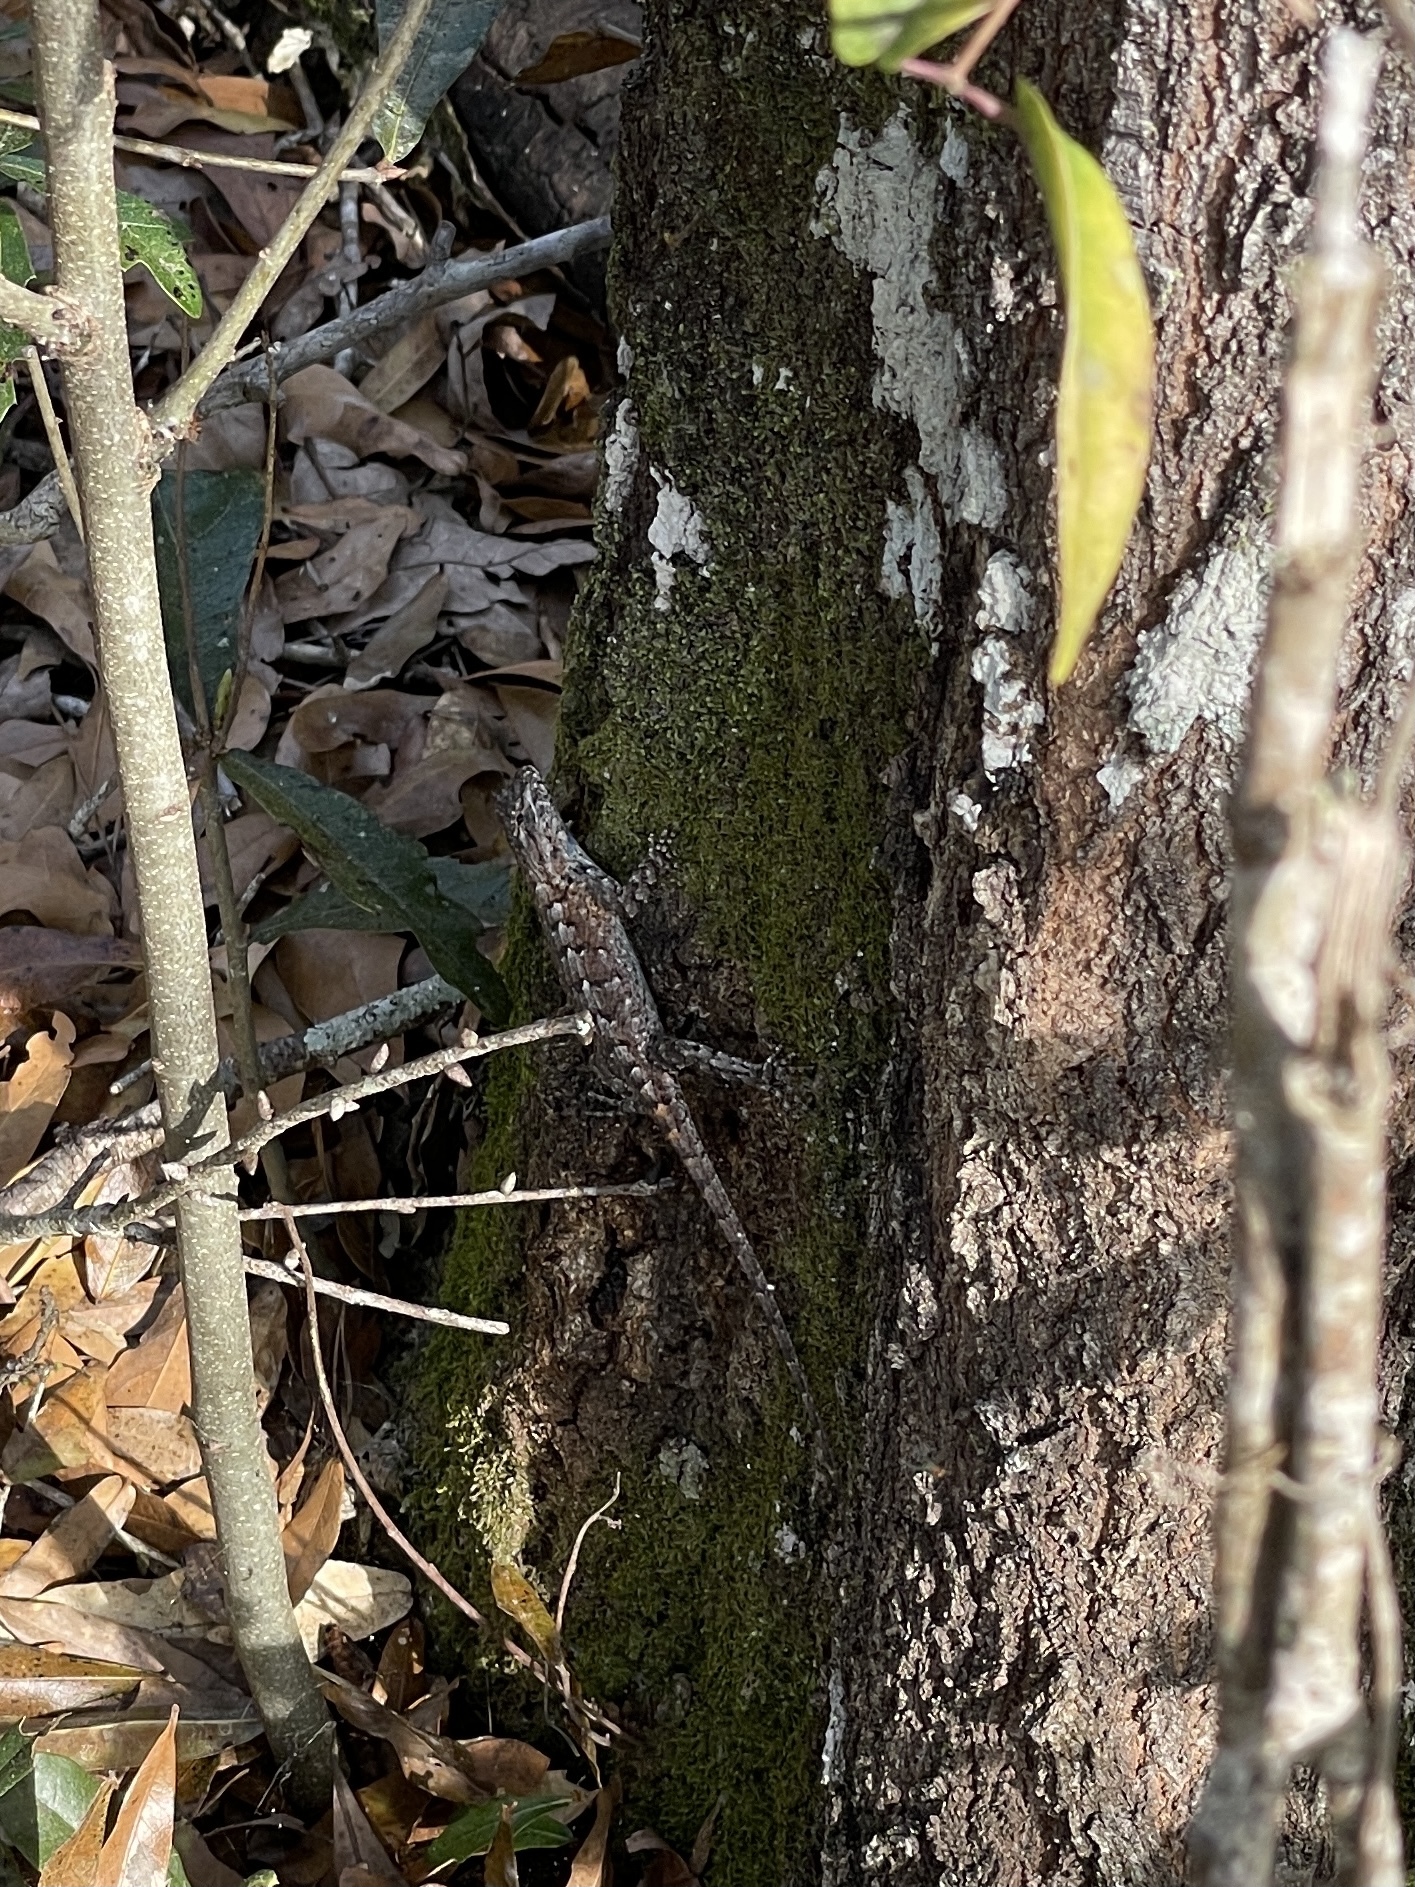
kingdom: Animalia
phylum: Chordata
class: Squamata
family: Phrynosomatidae
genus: Sceloporus
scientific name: Sceloporus undulatus
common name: Eastern fence lizard
